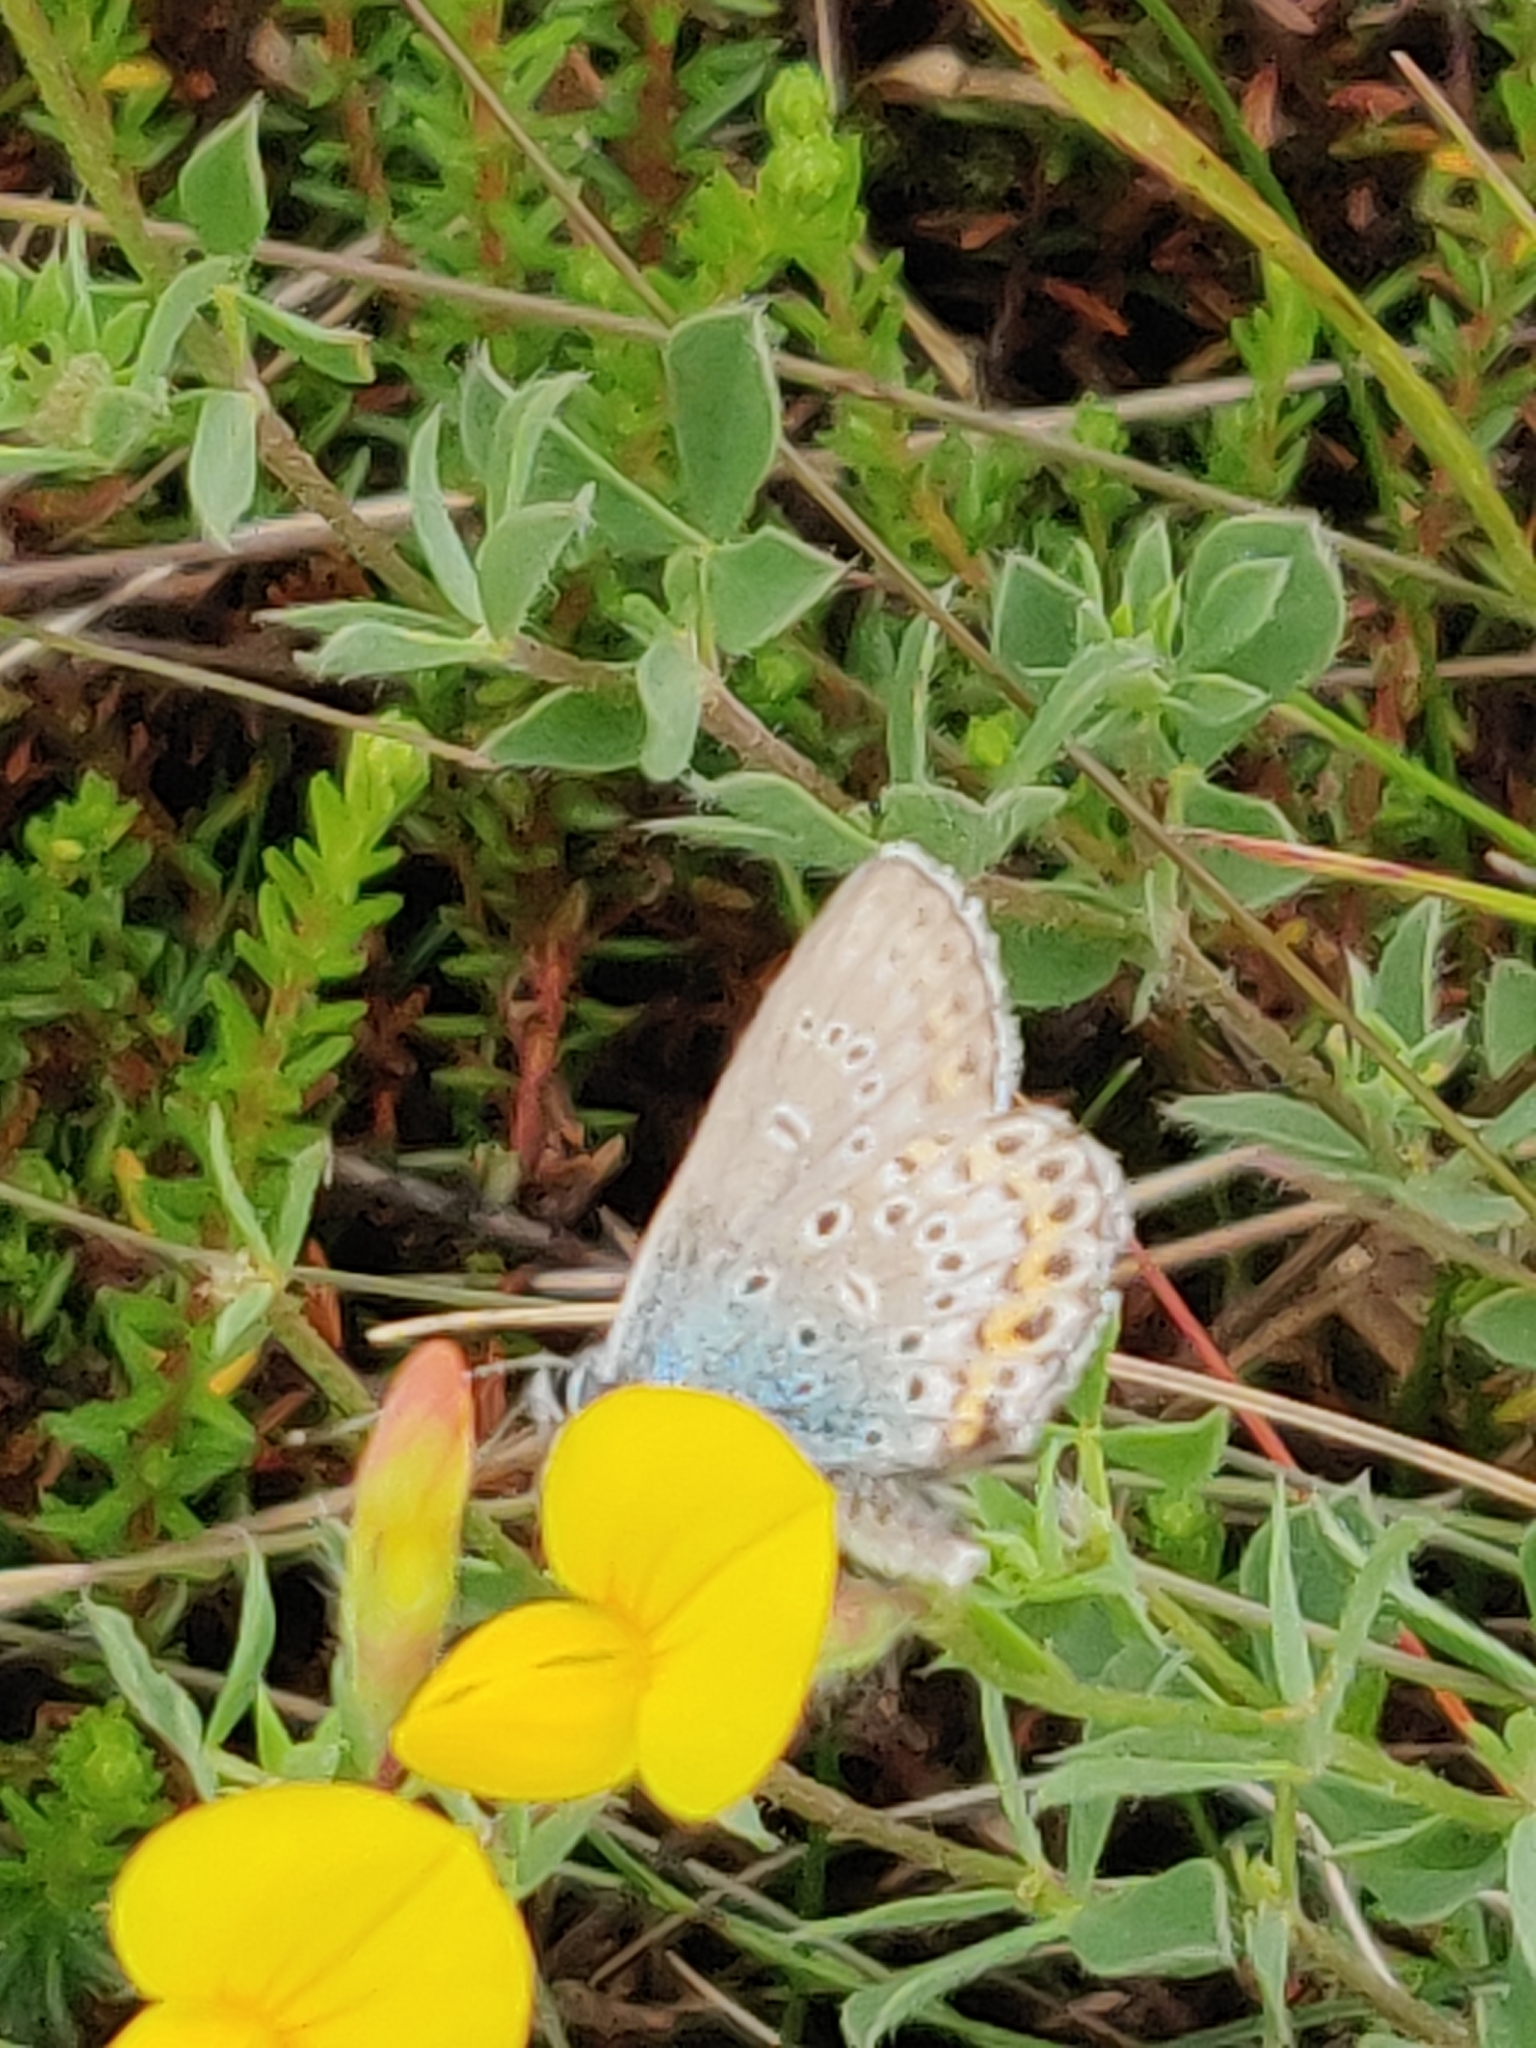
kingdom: Animalia
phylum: Arthropoda
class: Insecta
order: Lepidoptera
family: Lycaenidae
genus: Lycaeides
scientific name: Lycaeides idas
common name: Northern blue
